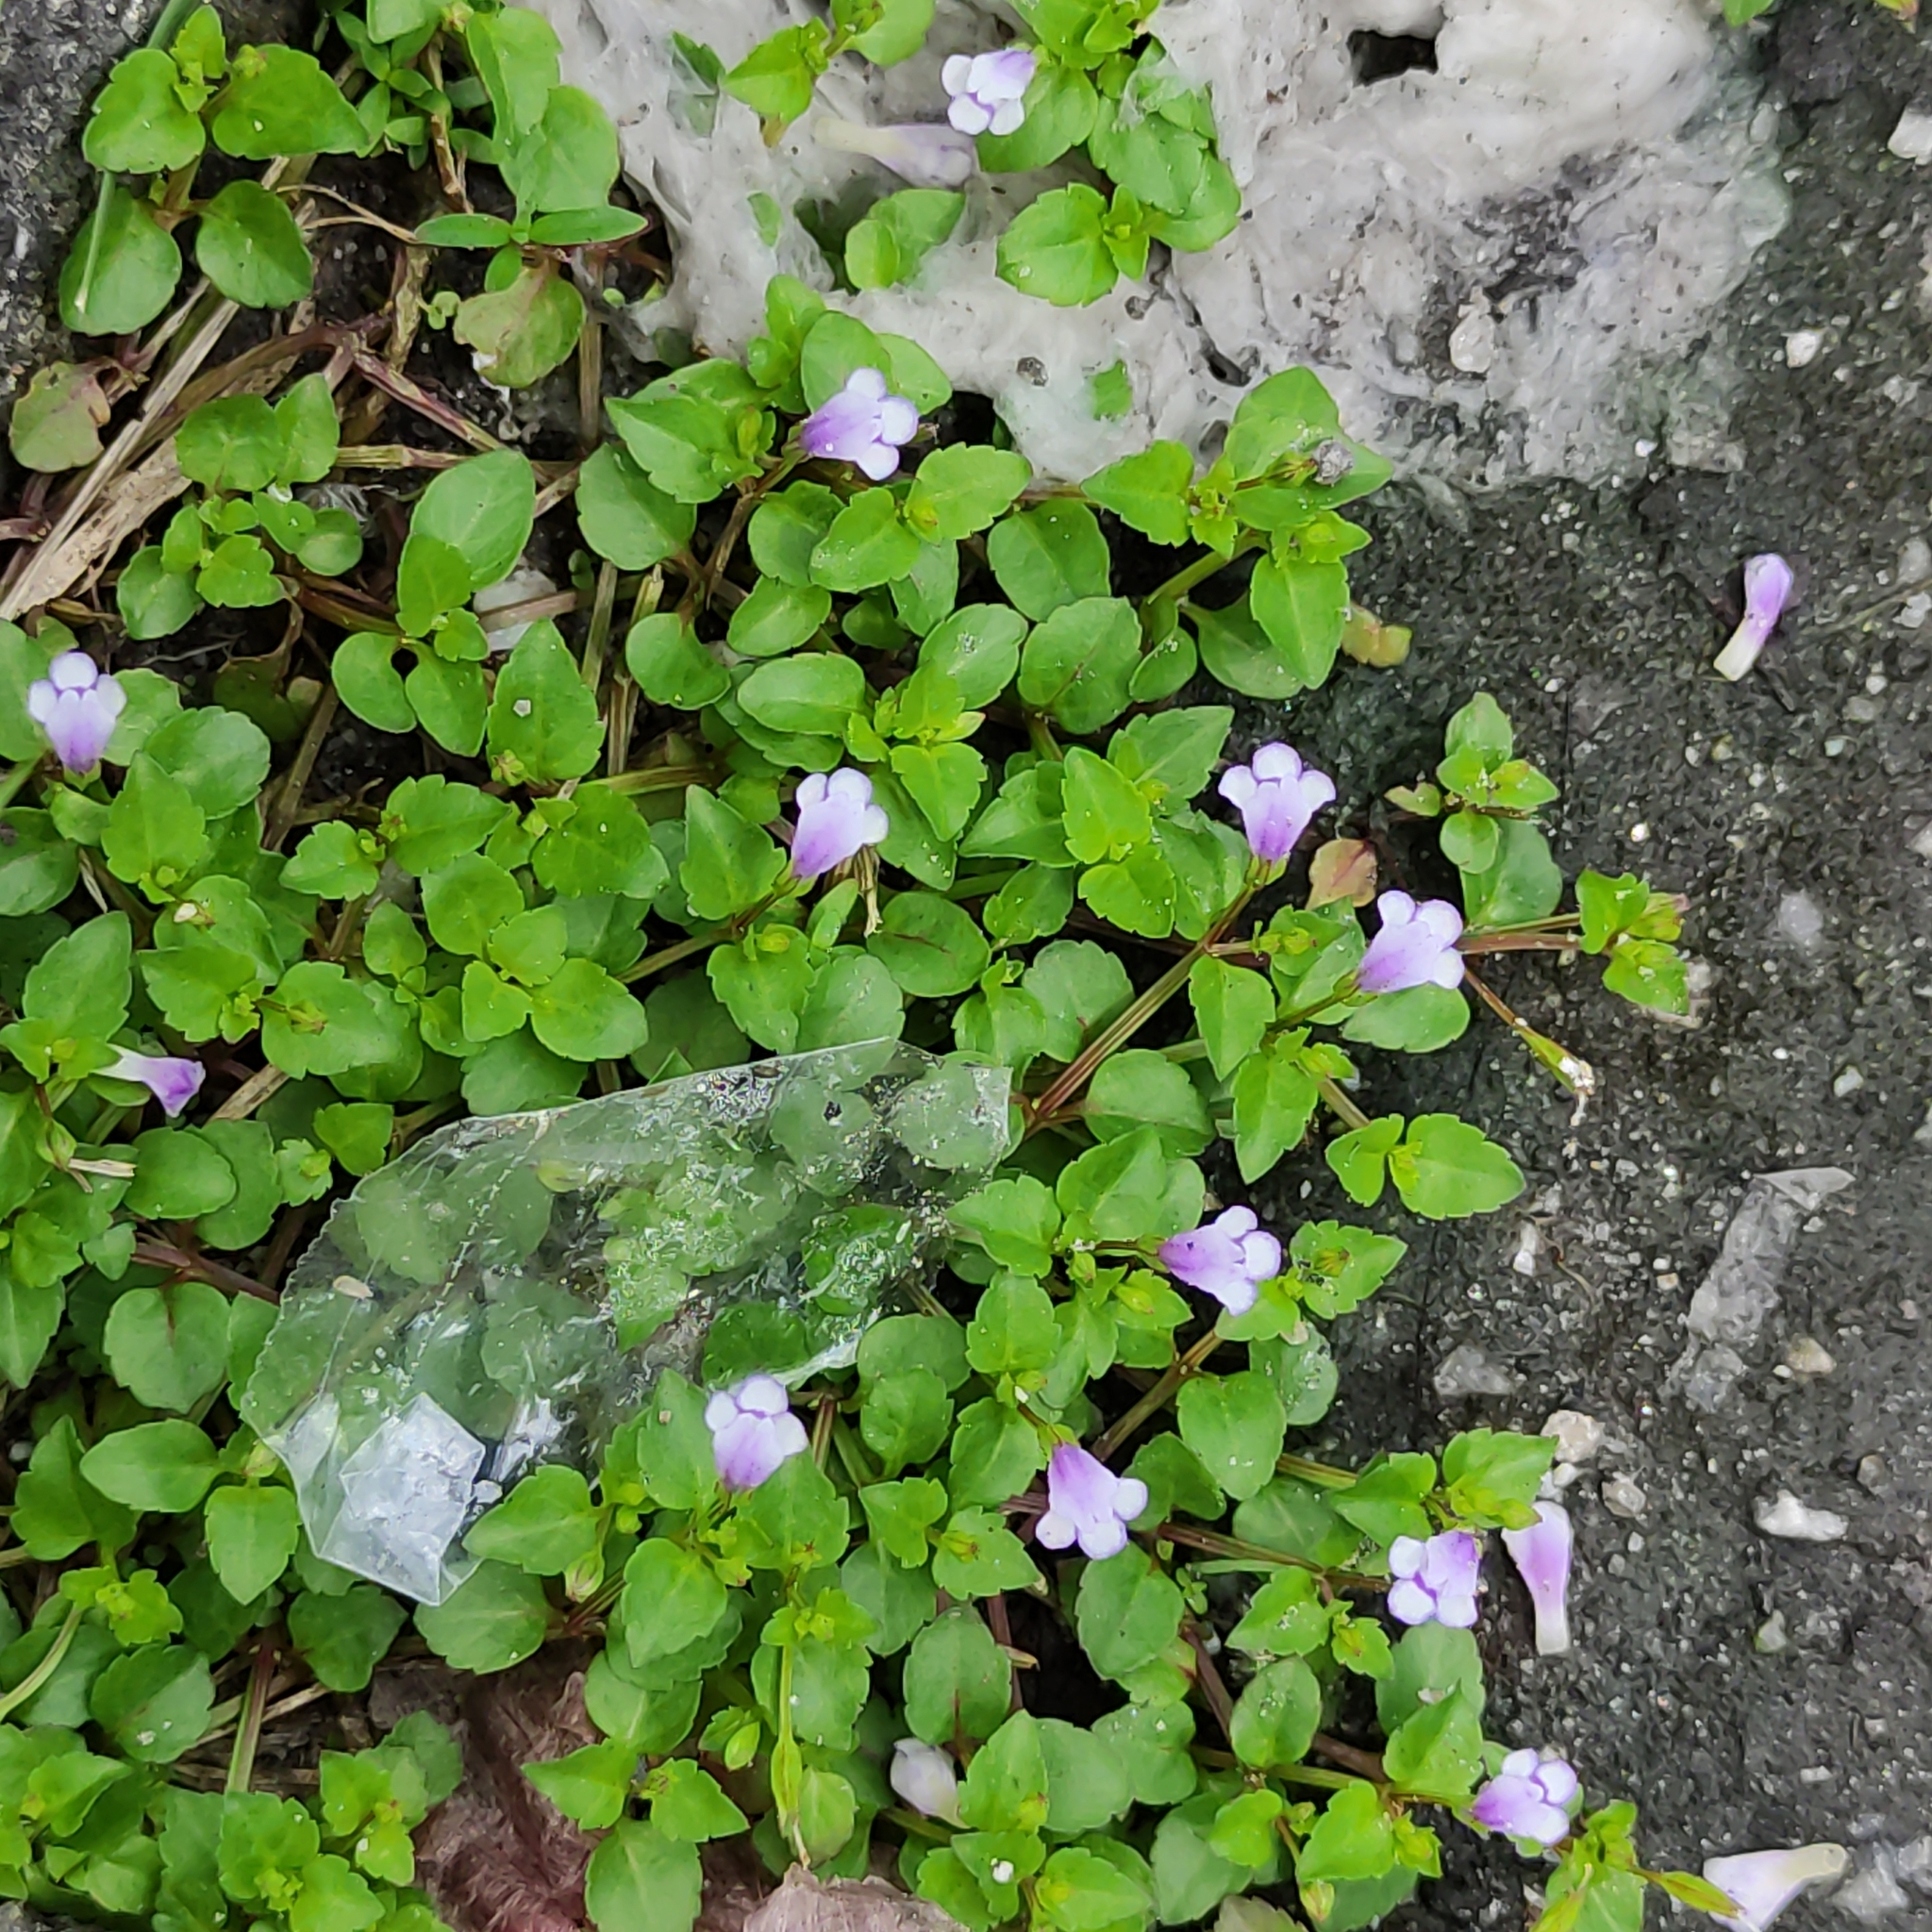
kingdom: Plantae
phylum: Tracheophyta
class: Magnoliopsida
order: Lamiales
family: Linderniaceae
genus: Torenia
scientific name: Torenia crustacea
